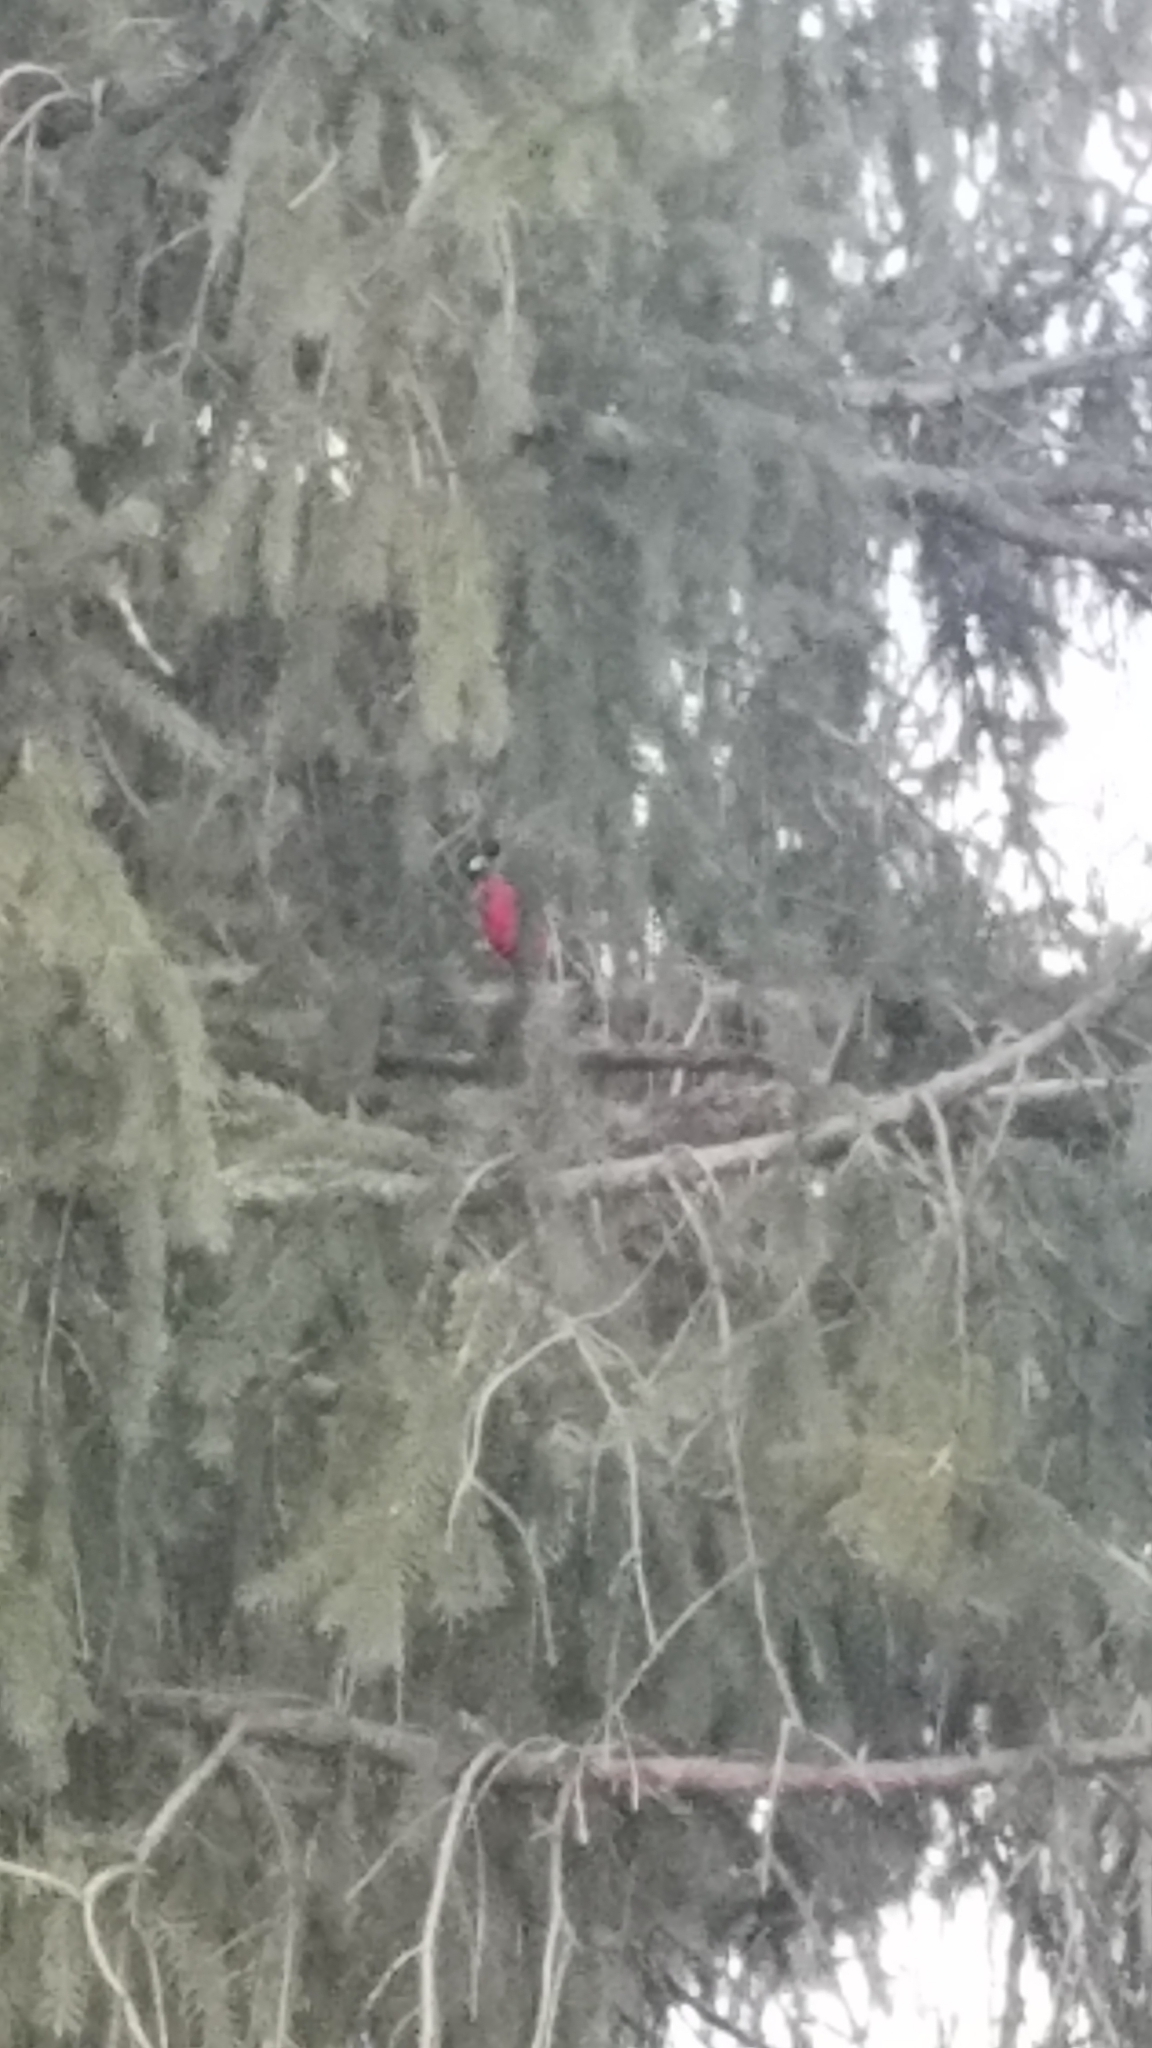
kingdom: Animalia
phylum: Chordata
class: Aves
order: Passeriformes
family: Cardinalidae
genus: Cardinalis
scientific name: Cardinalis cardinalis
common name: Northern cardinal
